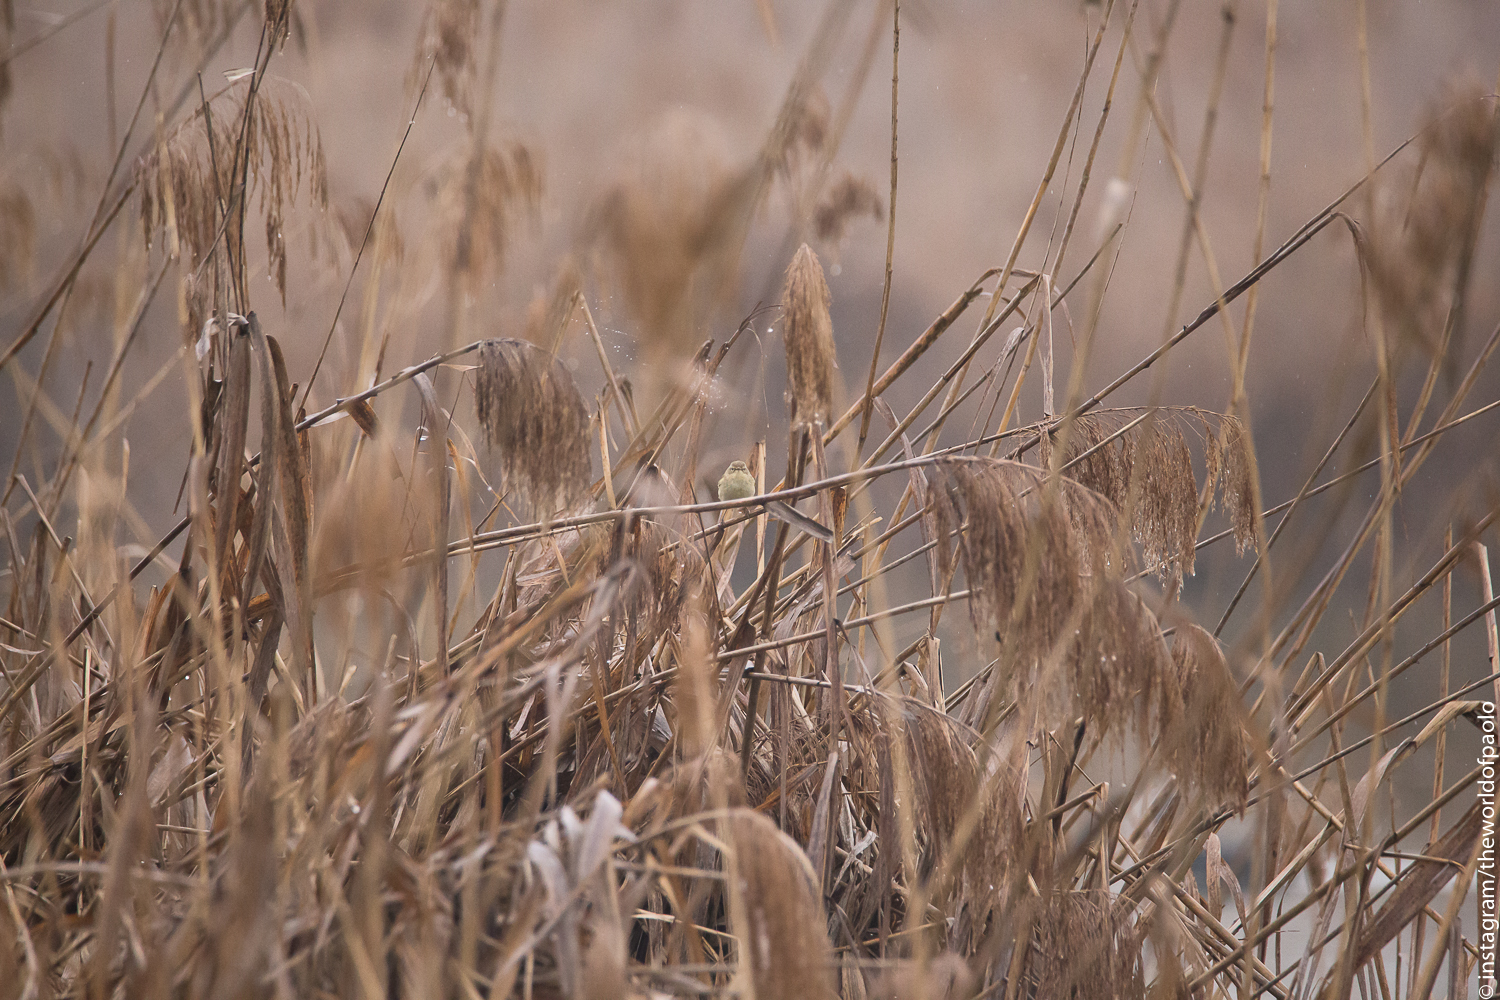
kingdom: Animalia
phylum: Chordata
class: Aves
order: Passeriformes
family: Phylloscopidae
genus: Phylloscopus
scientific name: Phylloscopus collybita
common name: Common chiffchaff
